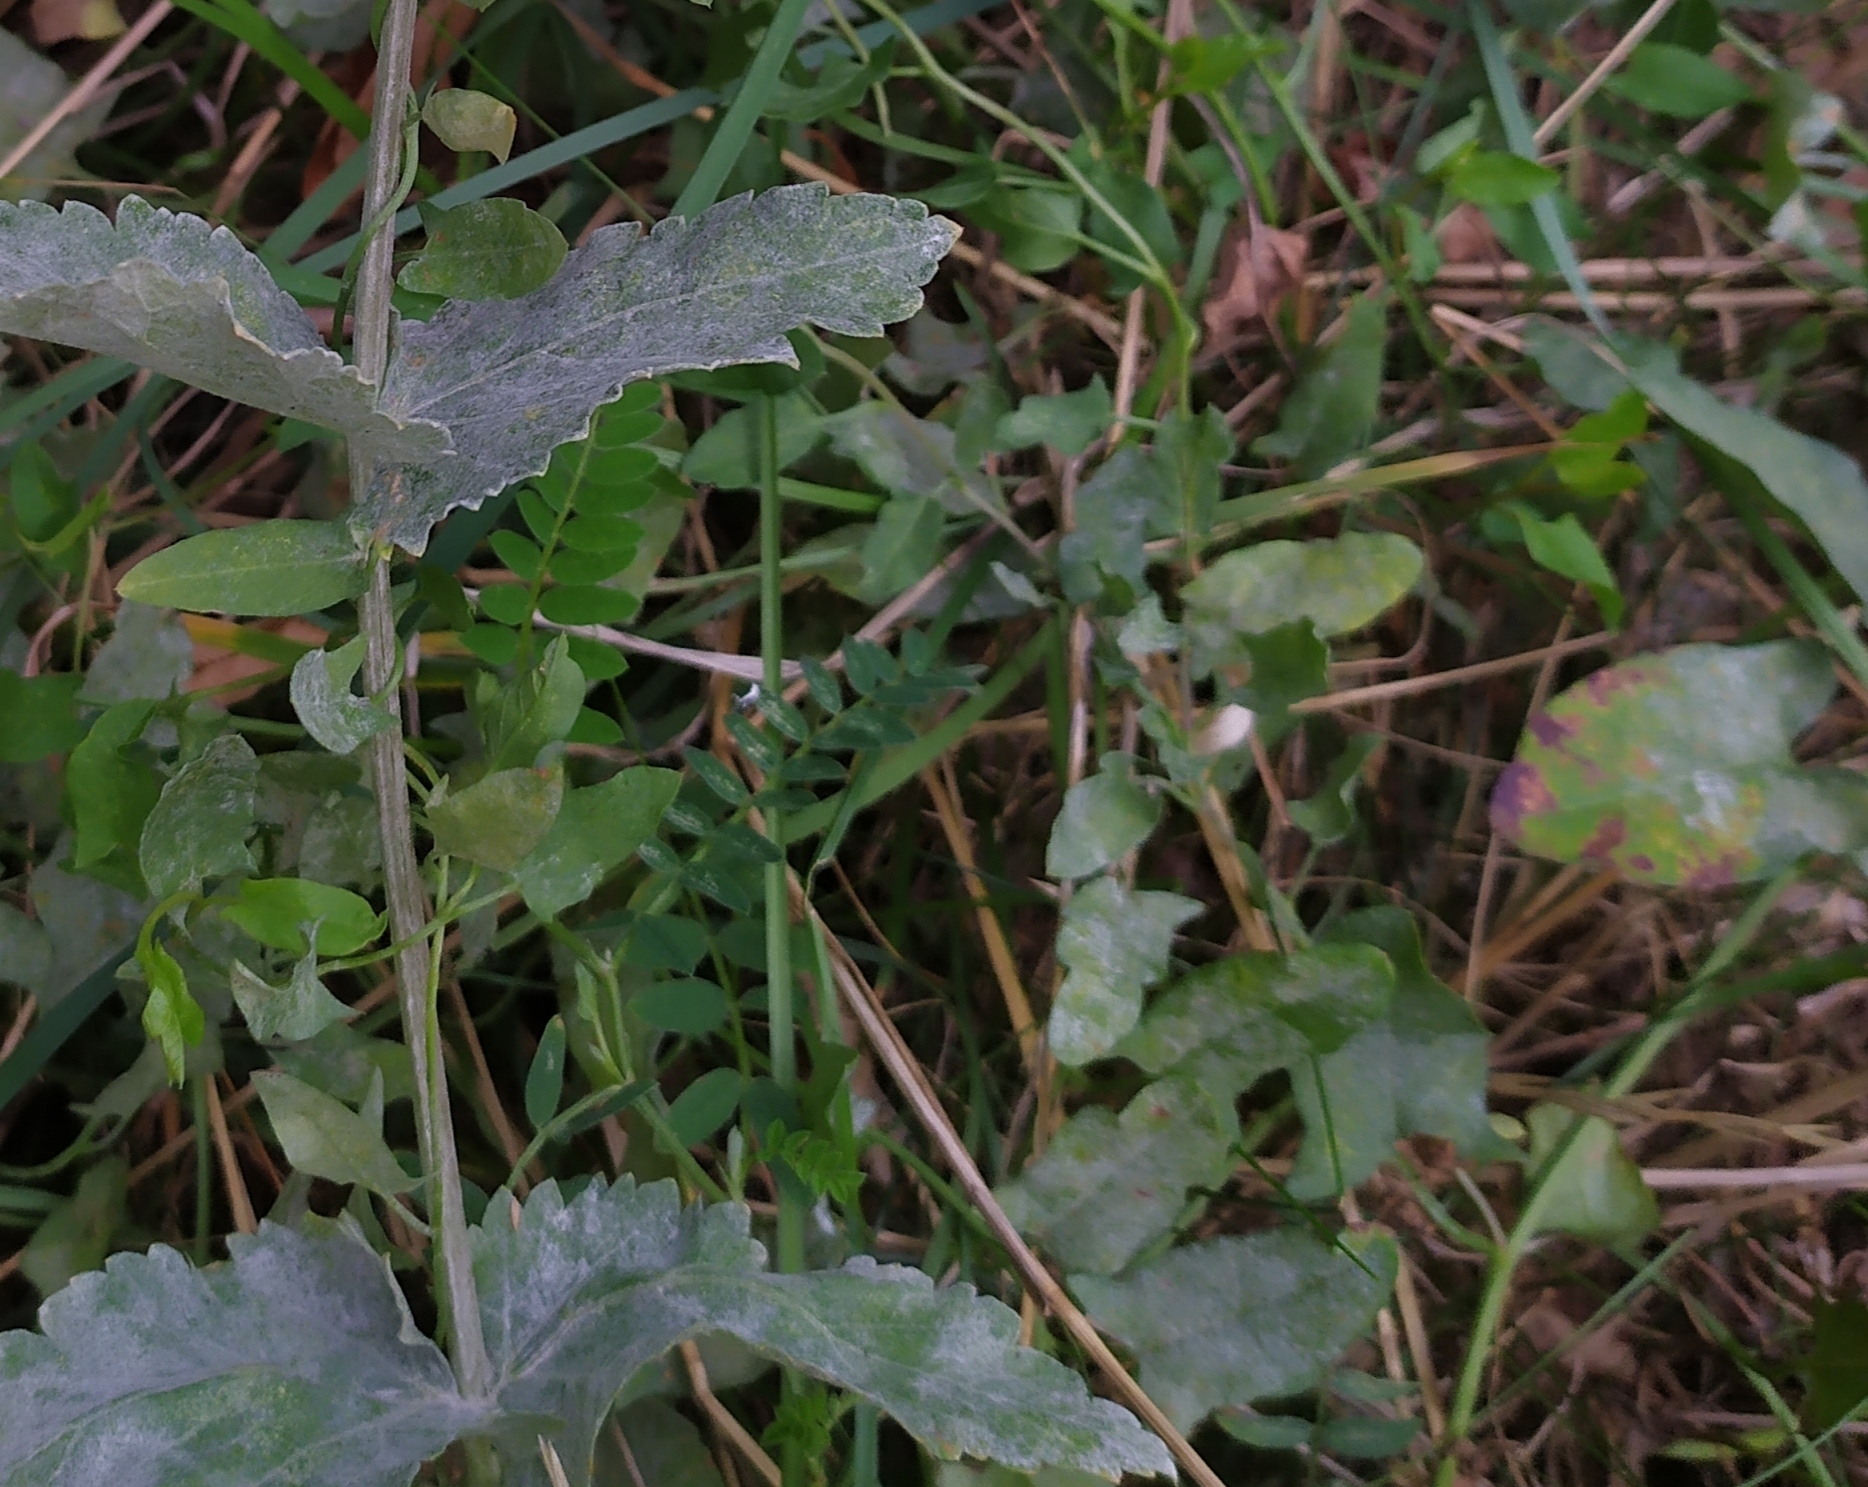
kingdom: Fungi
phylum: Ascomycota
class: Leotiomycetes
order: Helotiales
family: Erysiphaceae
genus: Erysiphe
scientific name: Erysiphe convolvuli
